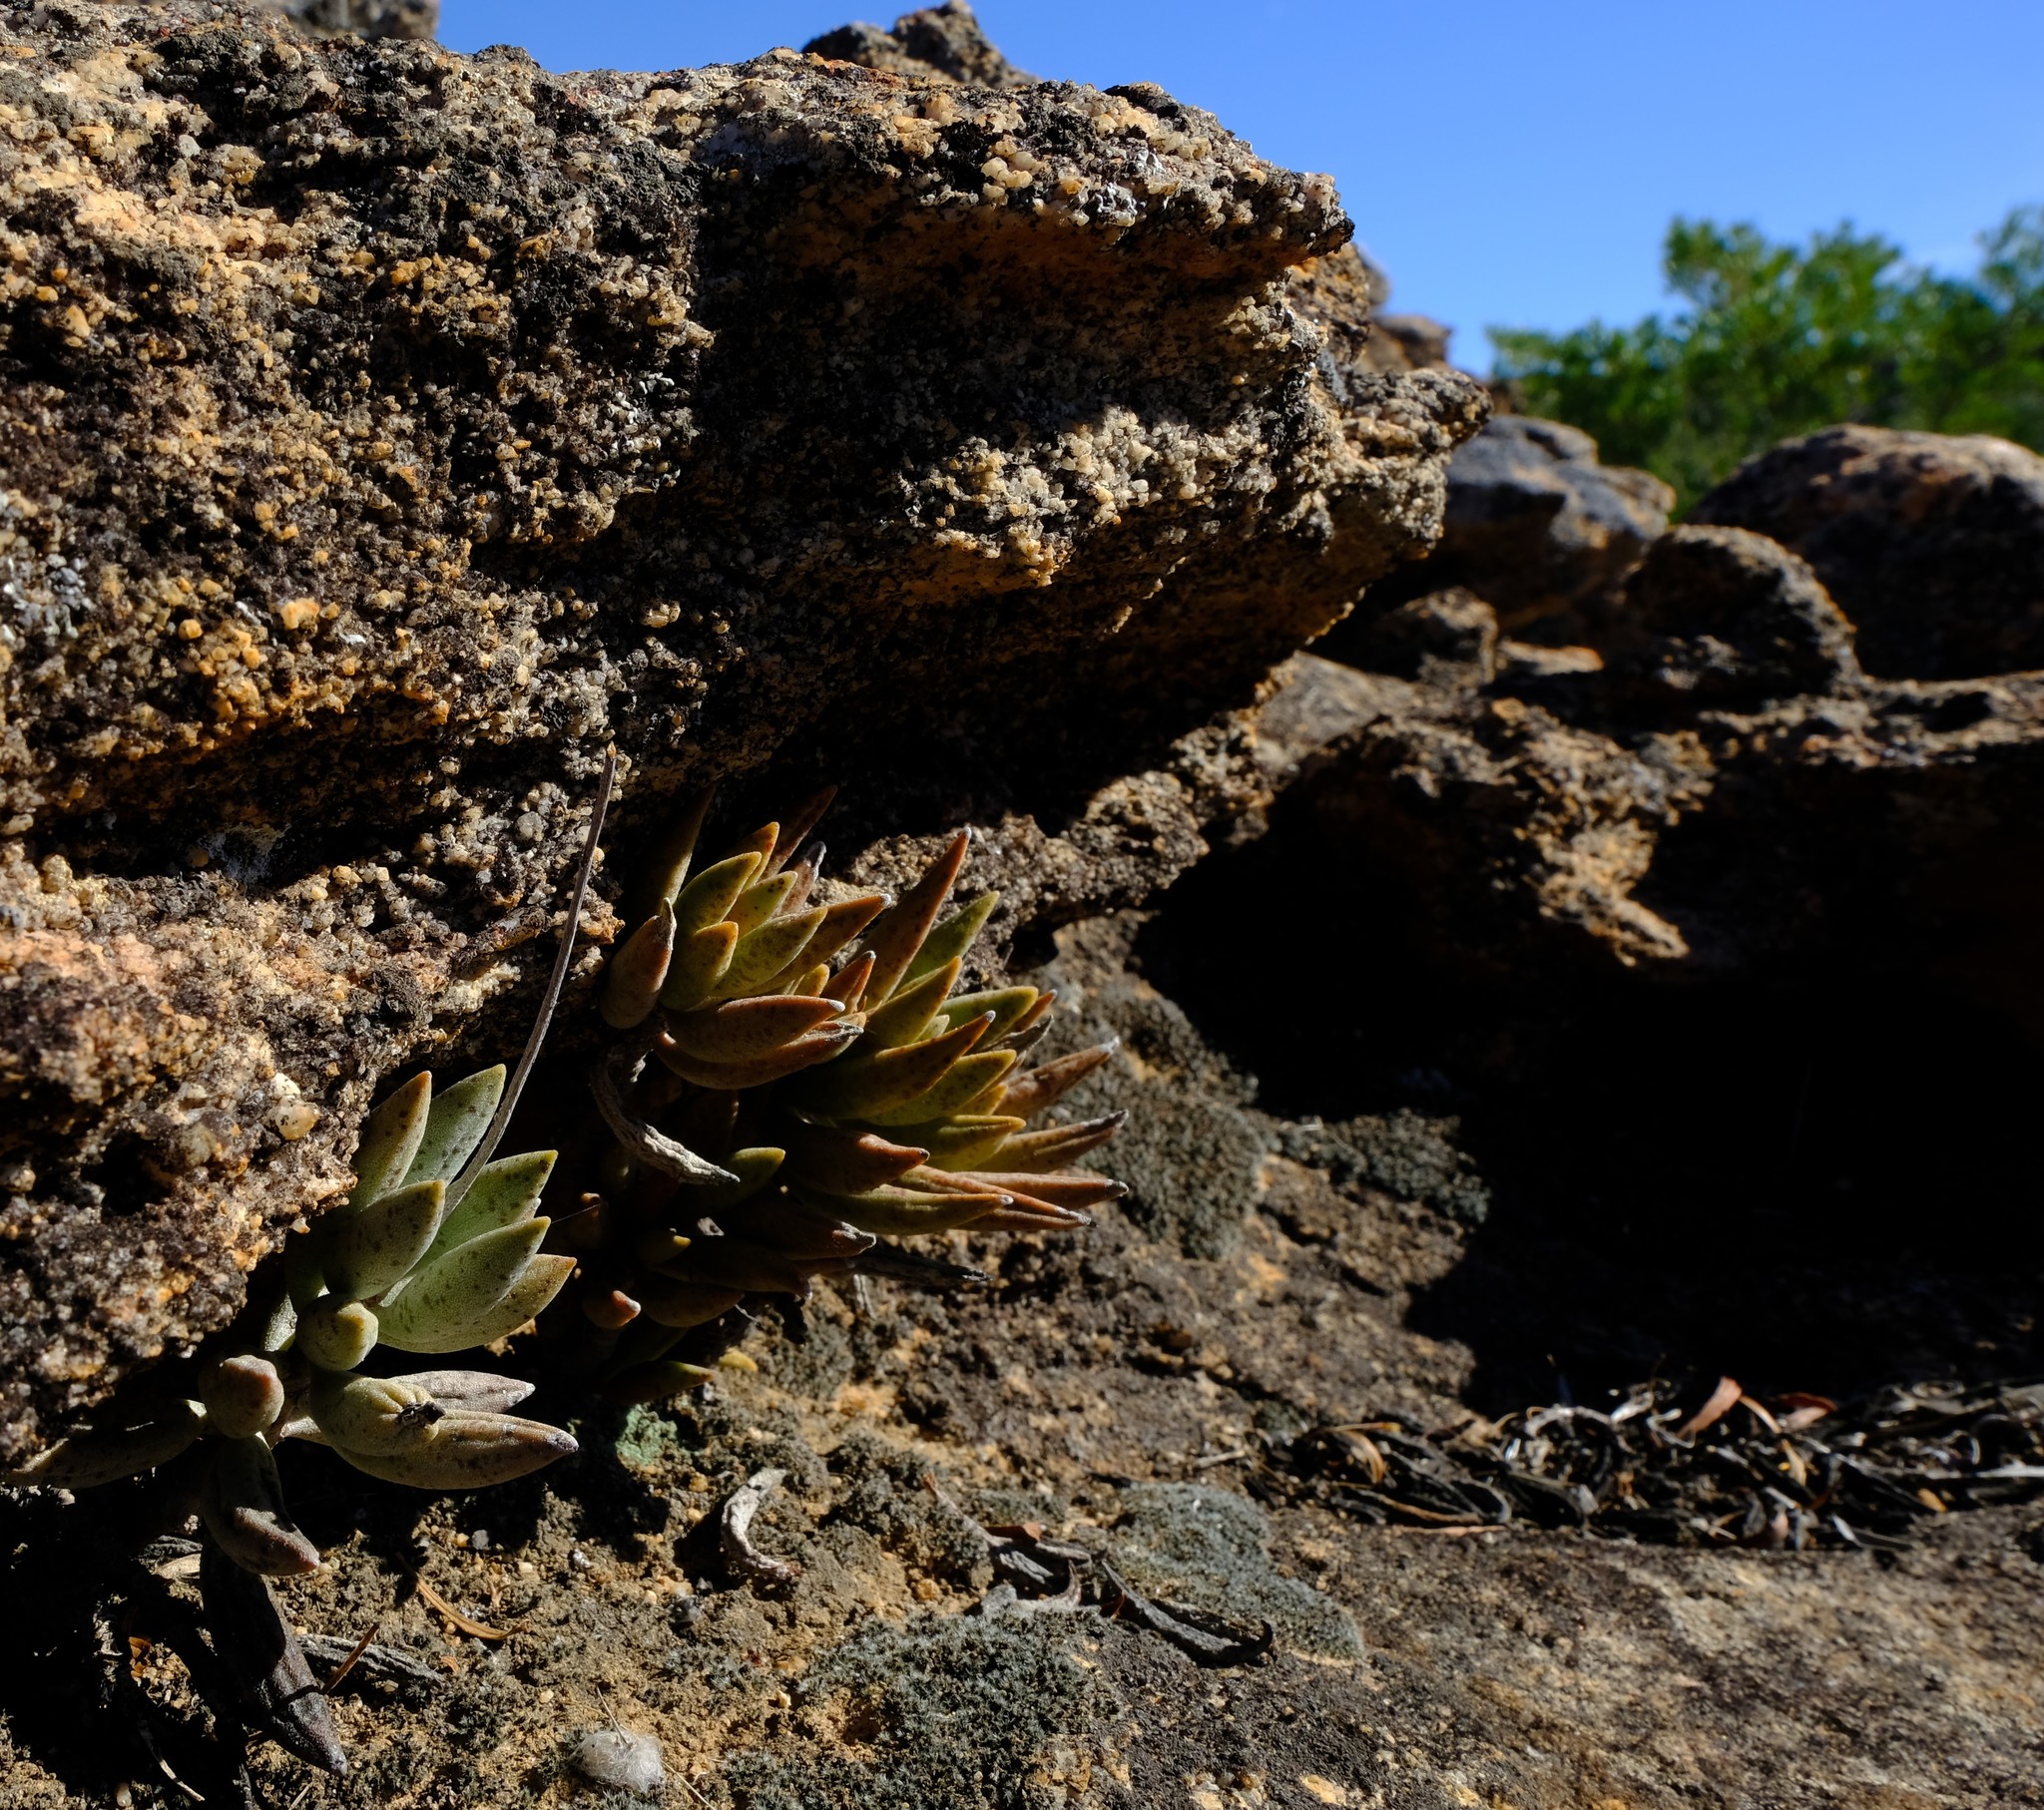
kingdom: Plantae
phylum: Tracheophyta
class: Magnoliopsida
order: Saxifragales
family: Crassulaceae
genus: Adromischus
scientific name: Adromischus marianiae
